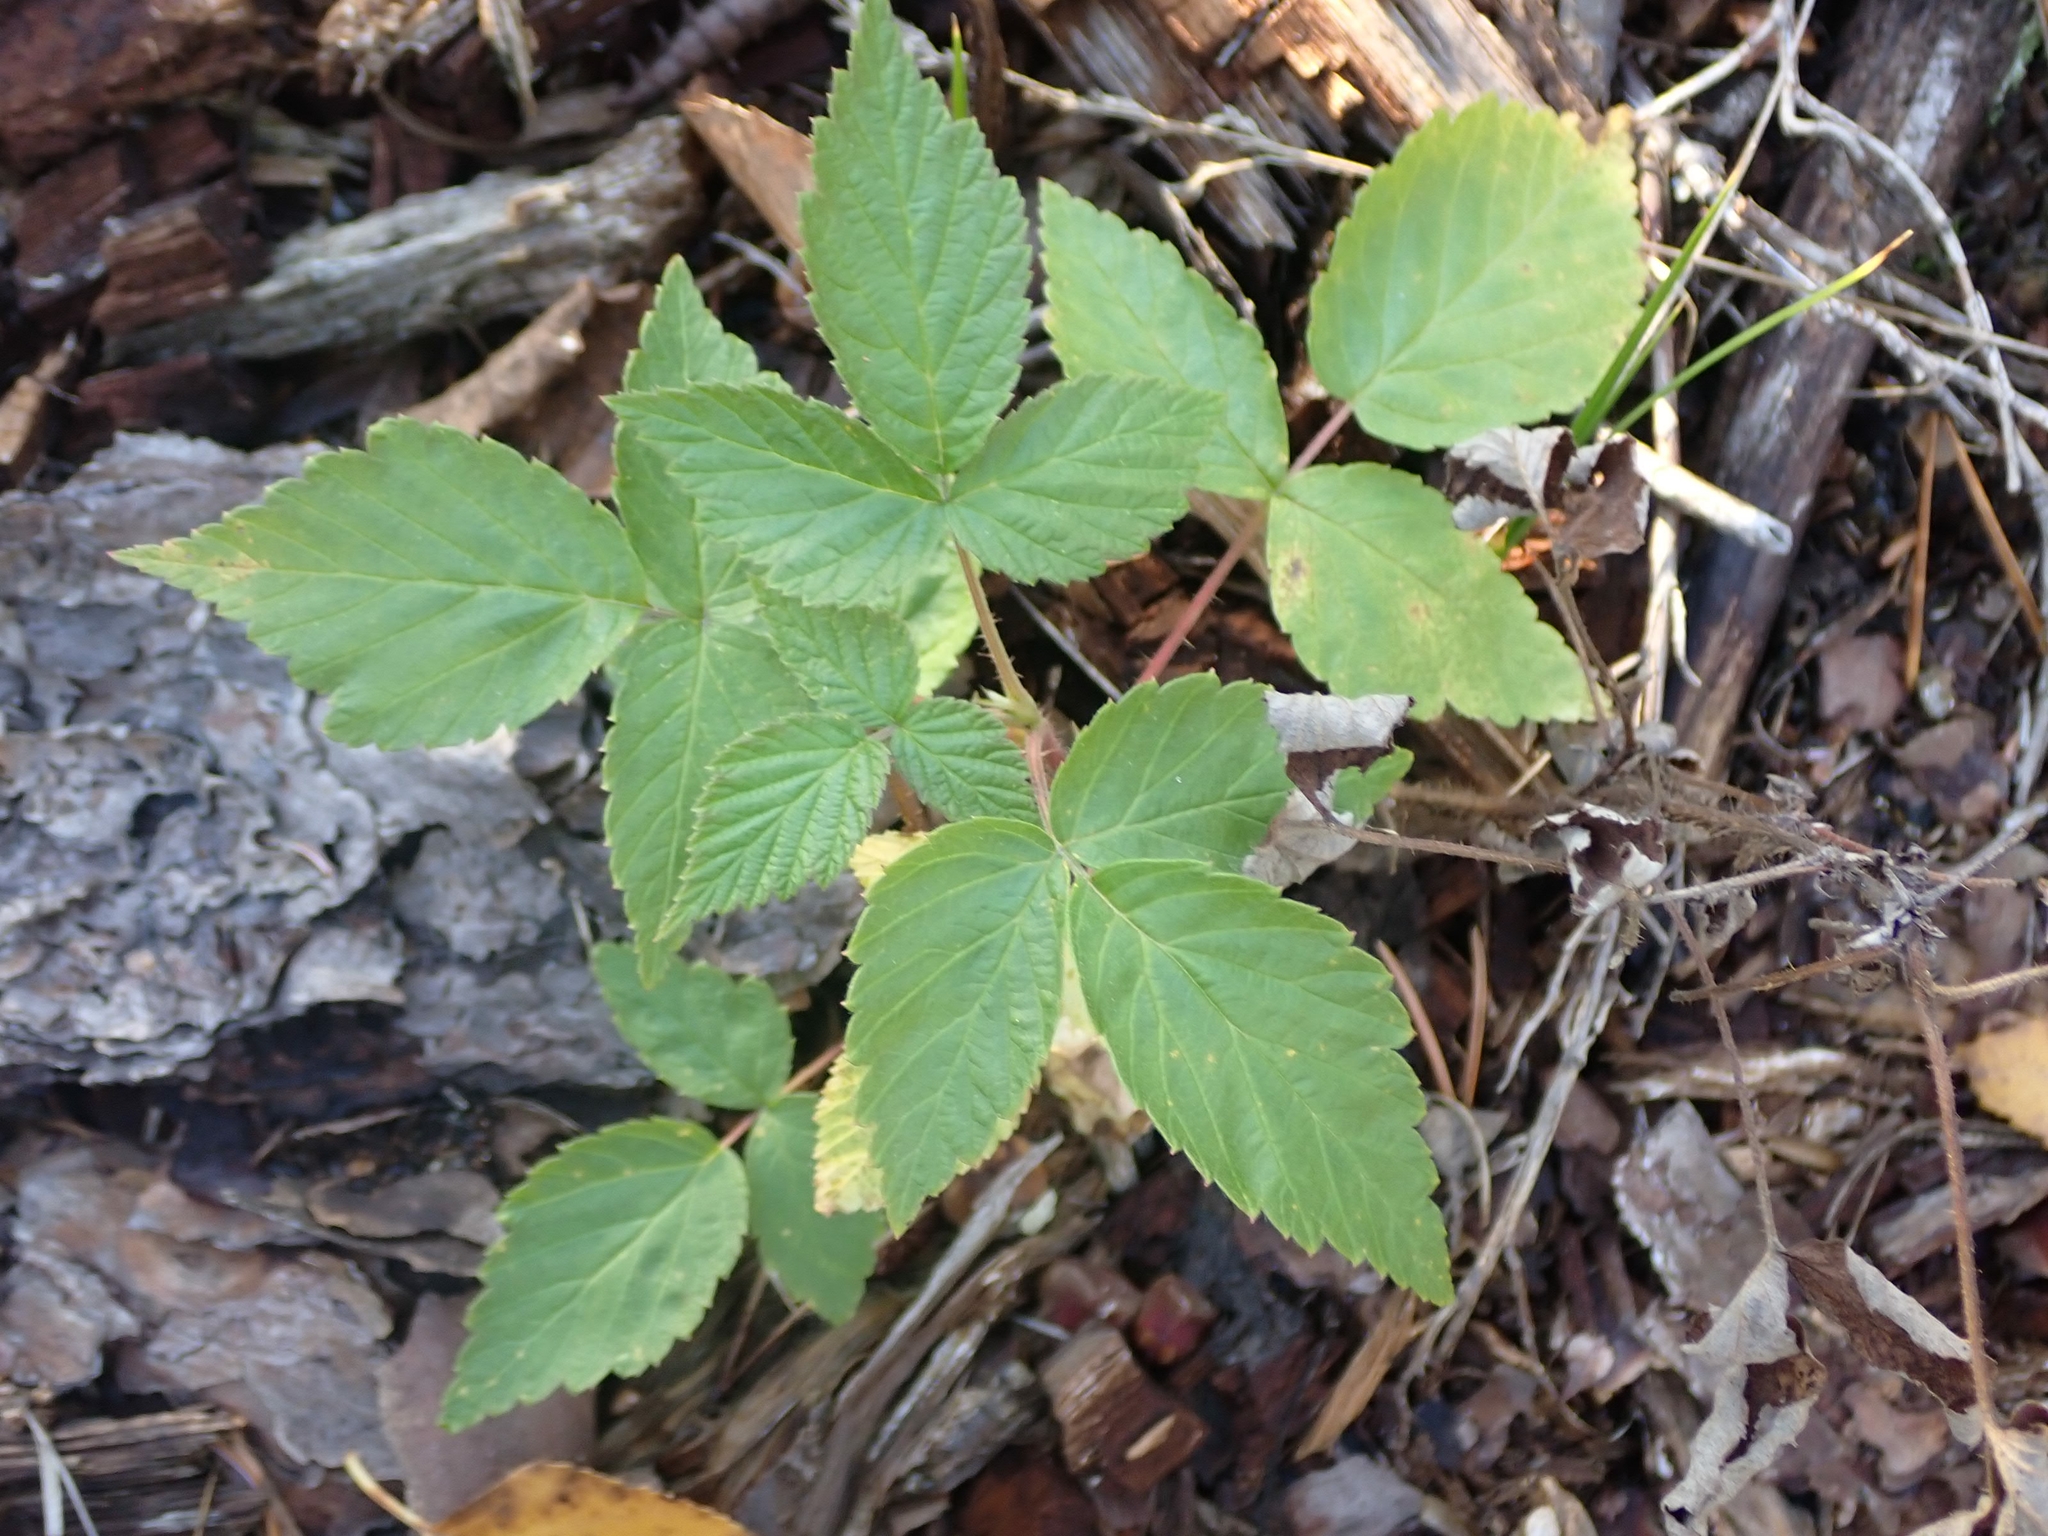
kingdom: Plantae
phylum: Tracheophyta
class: Magnoliopsida
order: Rosales
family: Rosaceae
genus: Rubus
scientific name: Rubus idaeus
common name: Raspberry
